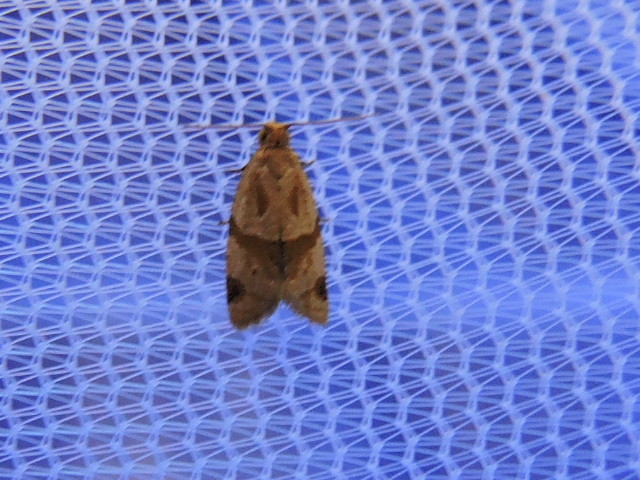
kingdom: Animalia
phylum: Arthropoda
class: Insecta
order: Lepidoptera
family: Tortricidae
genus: Clepsis
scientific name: Clepsis peritana
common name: Garden tortrix
